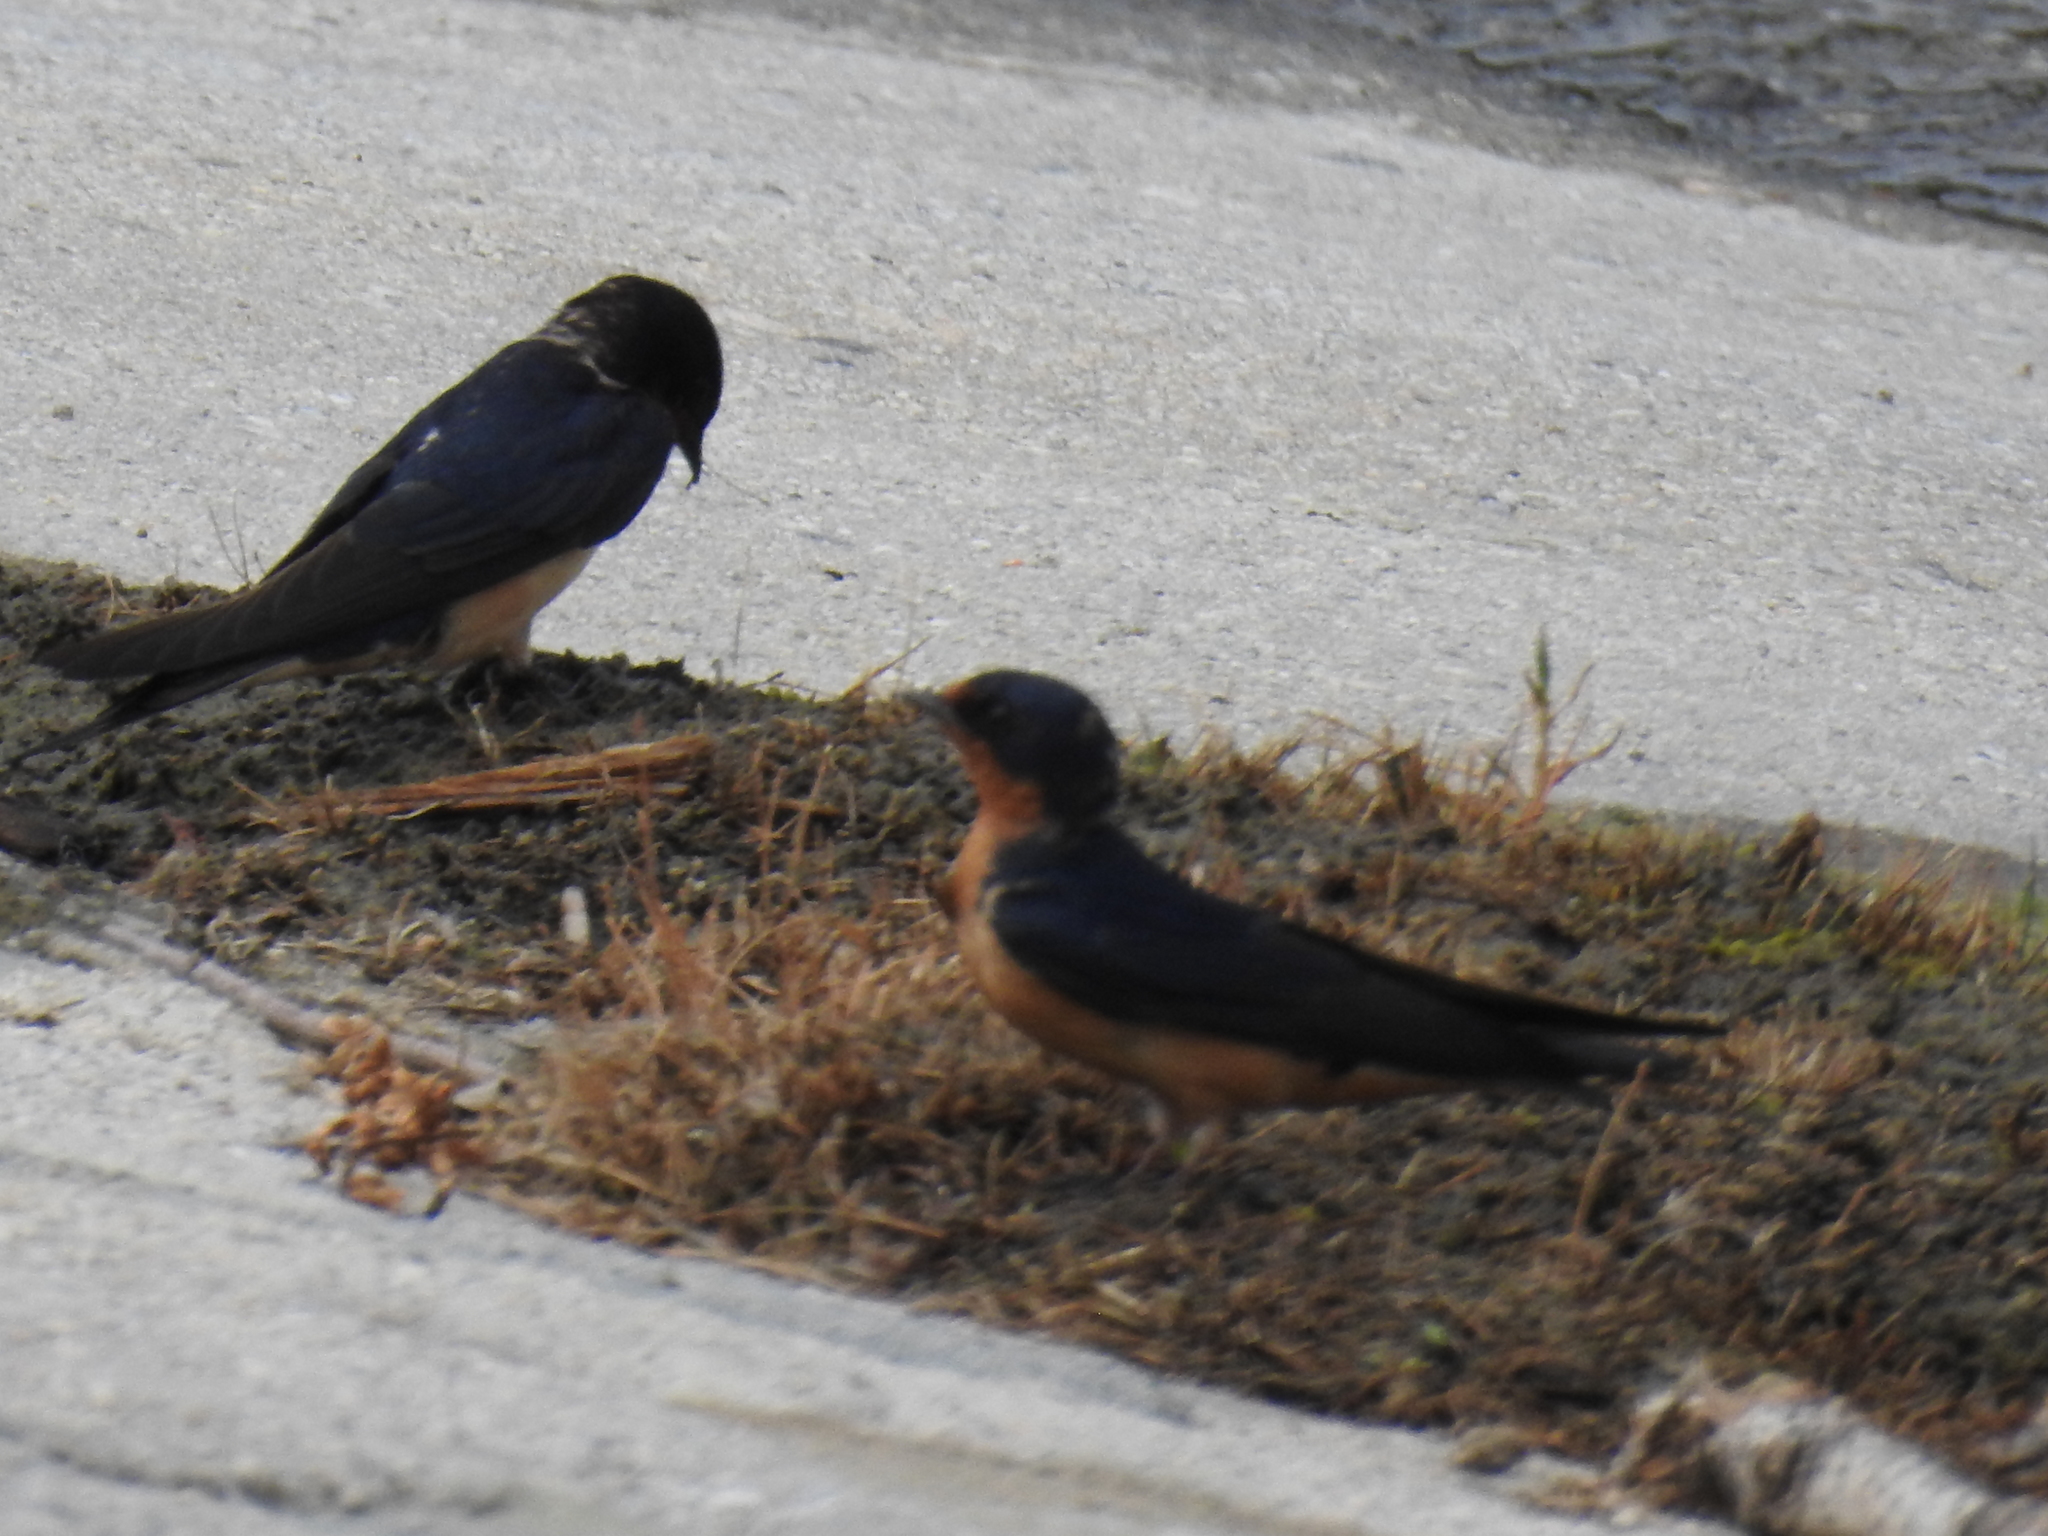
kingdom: Animalia
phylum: Chordata
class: Aves
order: Passeriformes
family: Hirundinidae
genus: Hirundo
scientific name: Hirundo rustica
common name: Barn swallow
